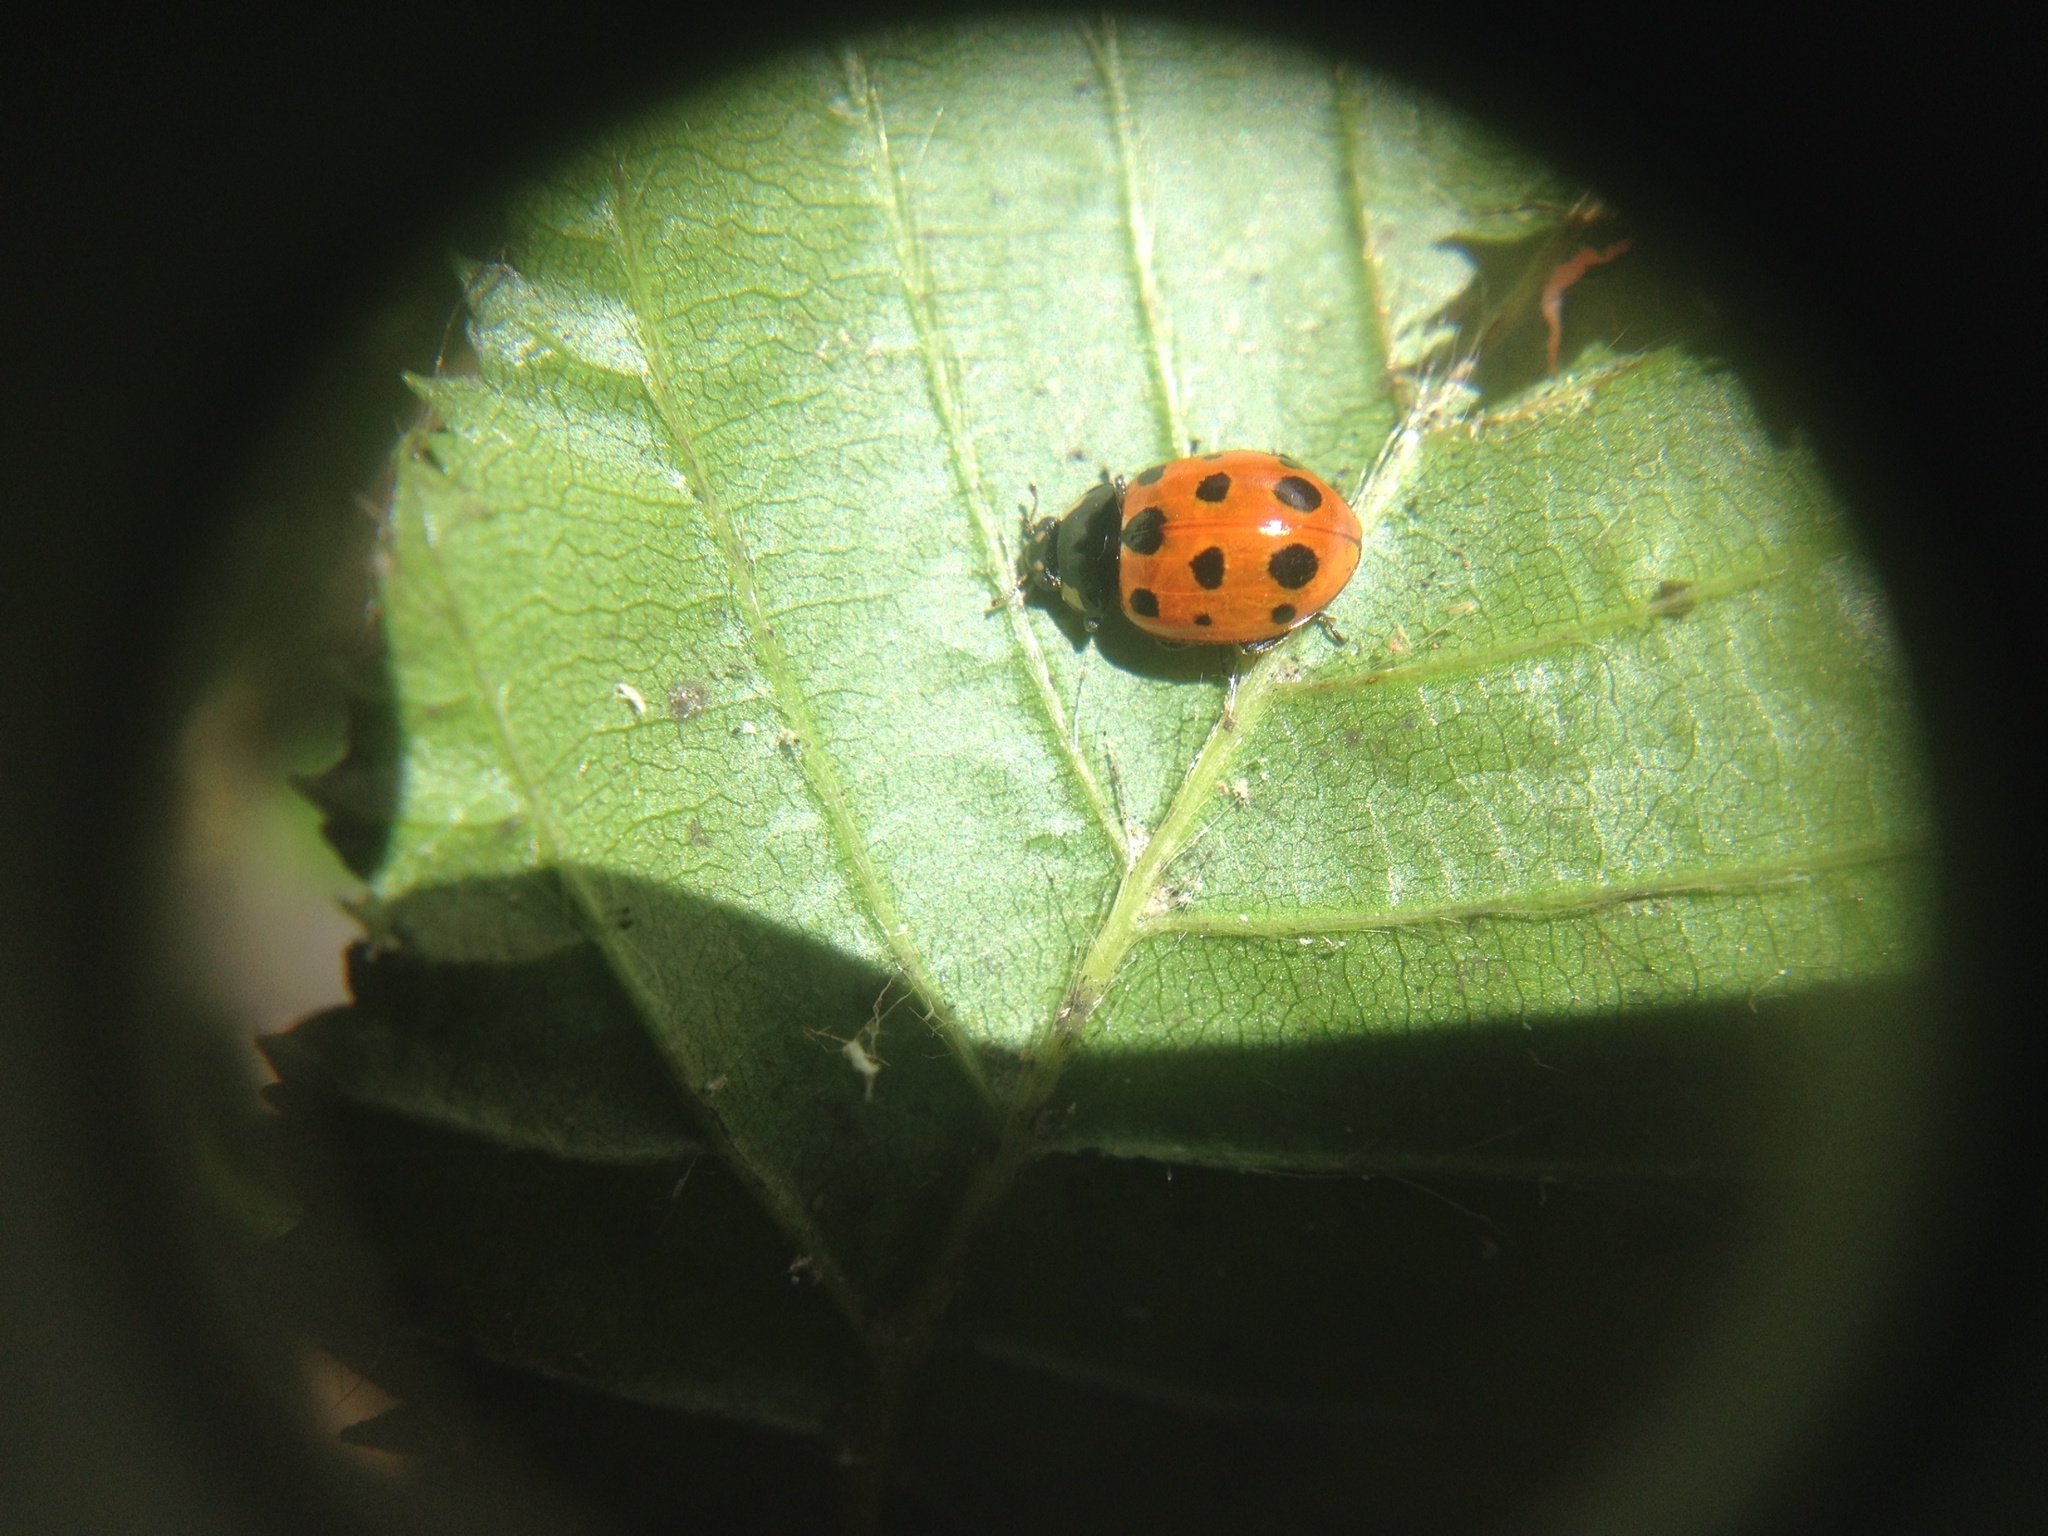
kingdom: Animalia
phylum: Arthropoda
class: Insecta
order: Coleoptera
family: Coccinellidae
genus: Coccinella
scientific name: Coccinella undecimpunctata
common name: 11-spot ladybird
